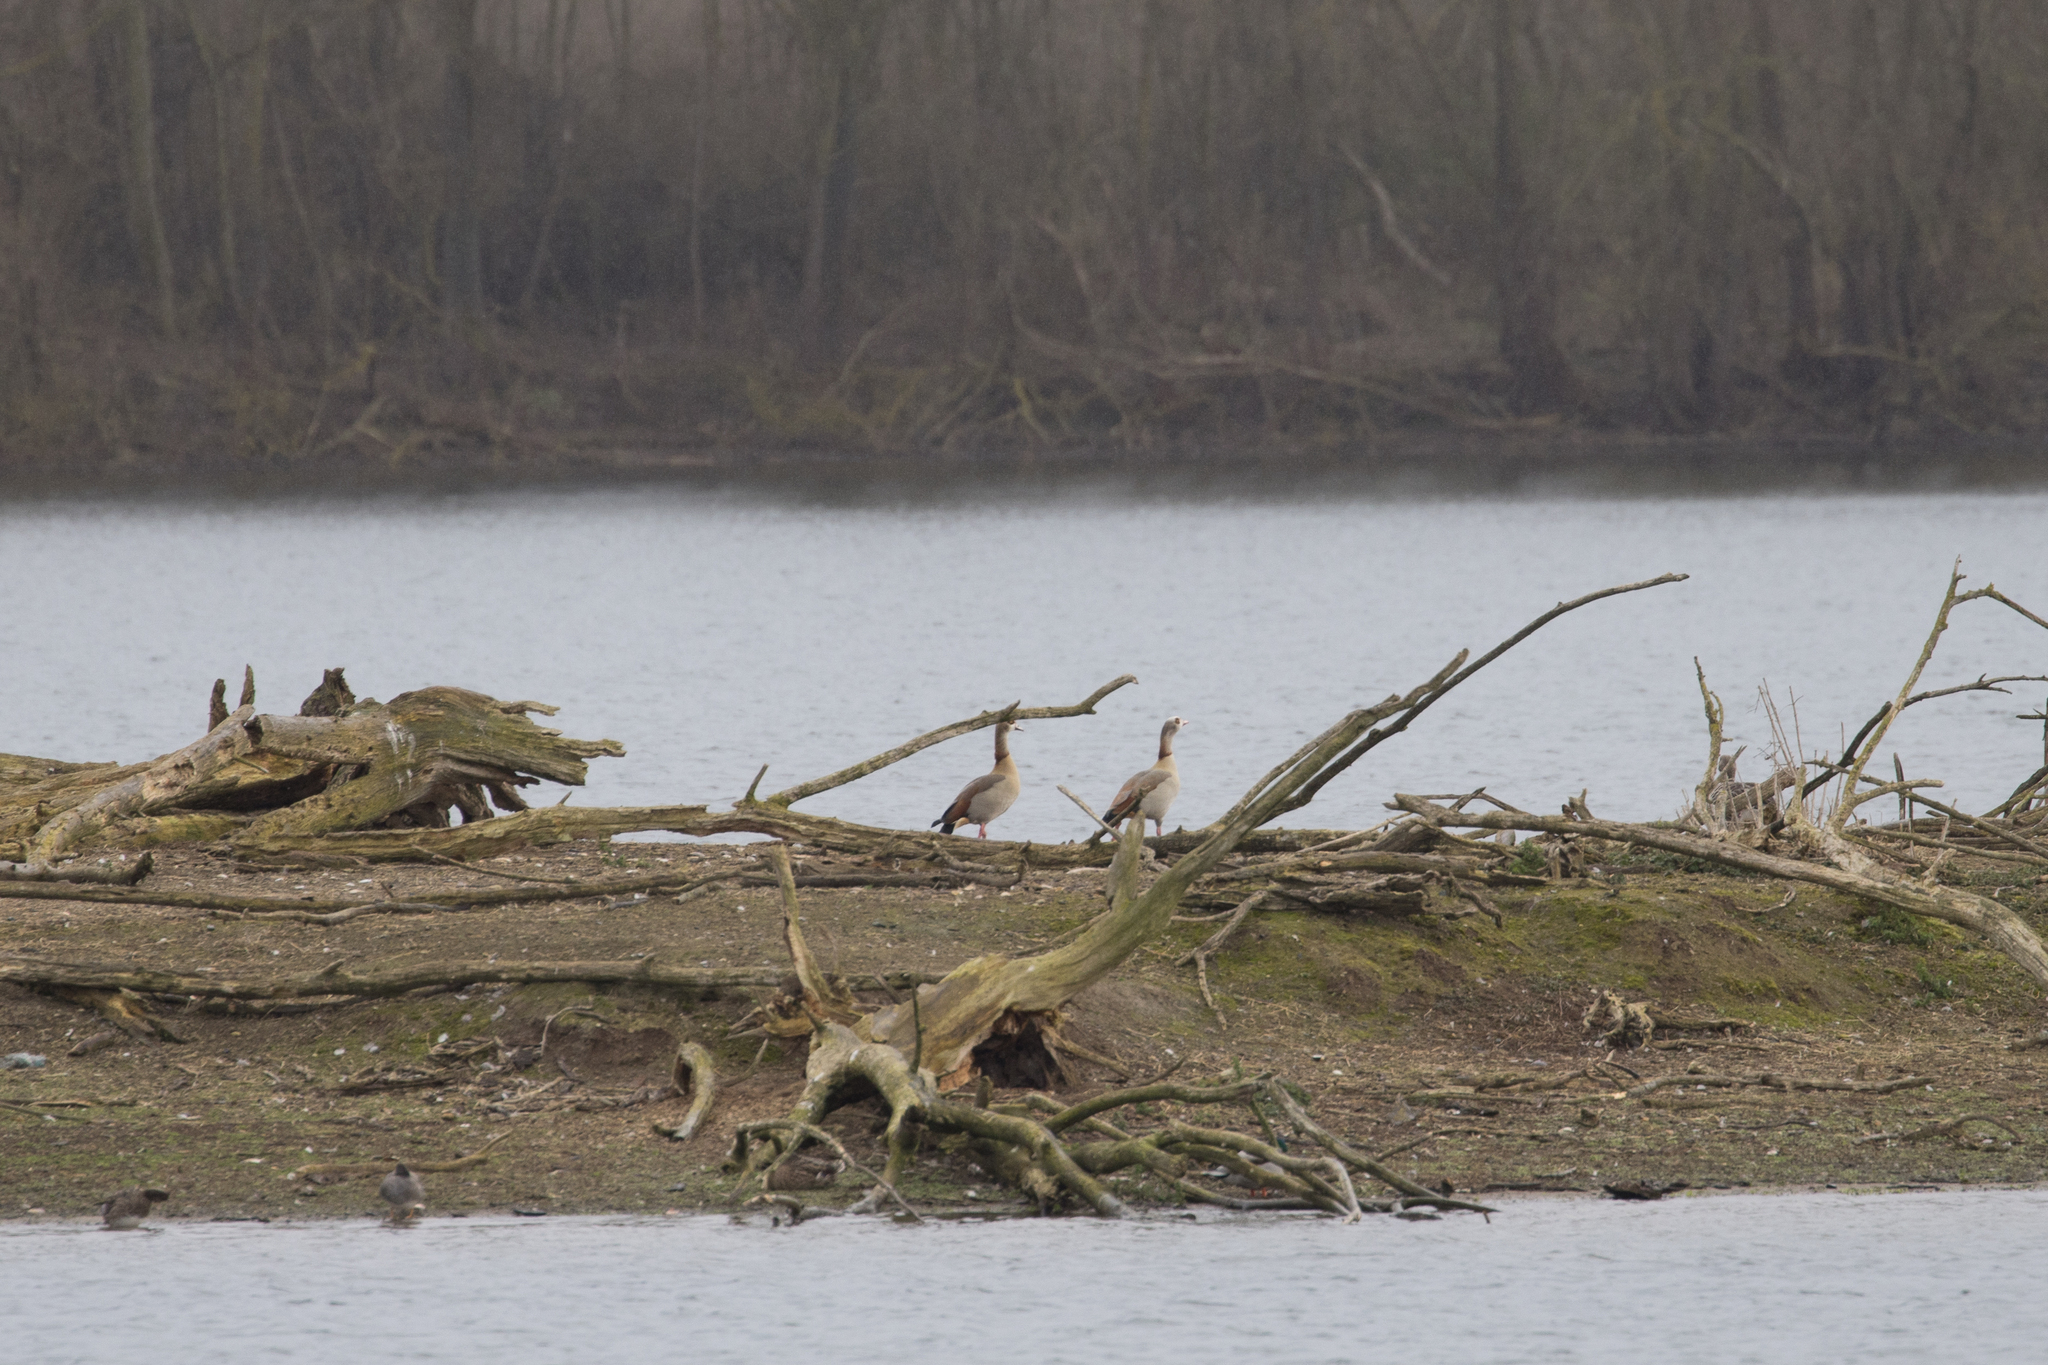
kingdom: Animalia
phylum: Chordata
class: Aves
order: Anseriformes
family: Anatidae
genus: Alopochen
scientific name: Alopochen aegyptiaca
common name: Egyptian goose
